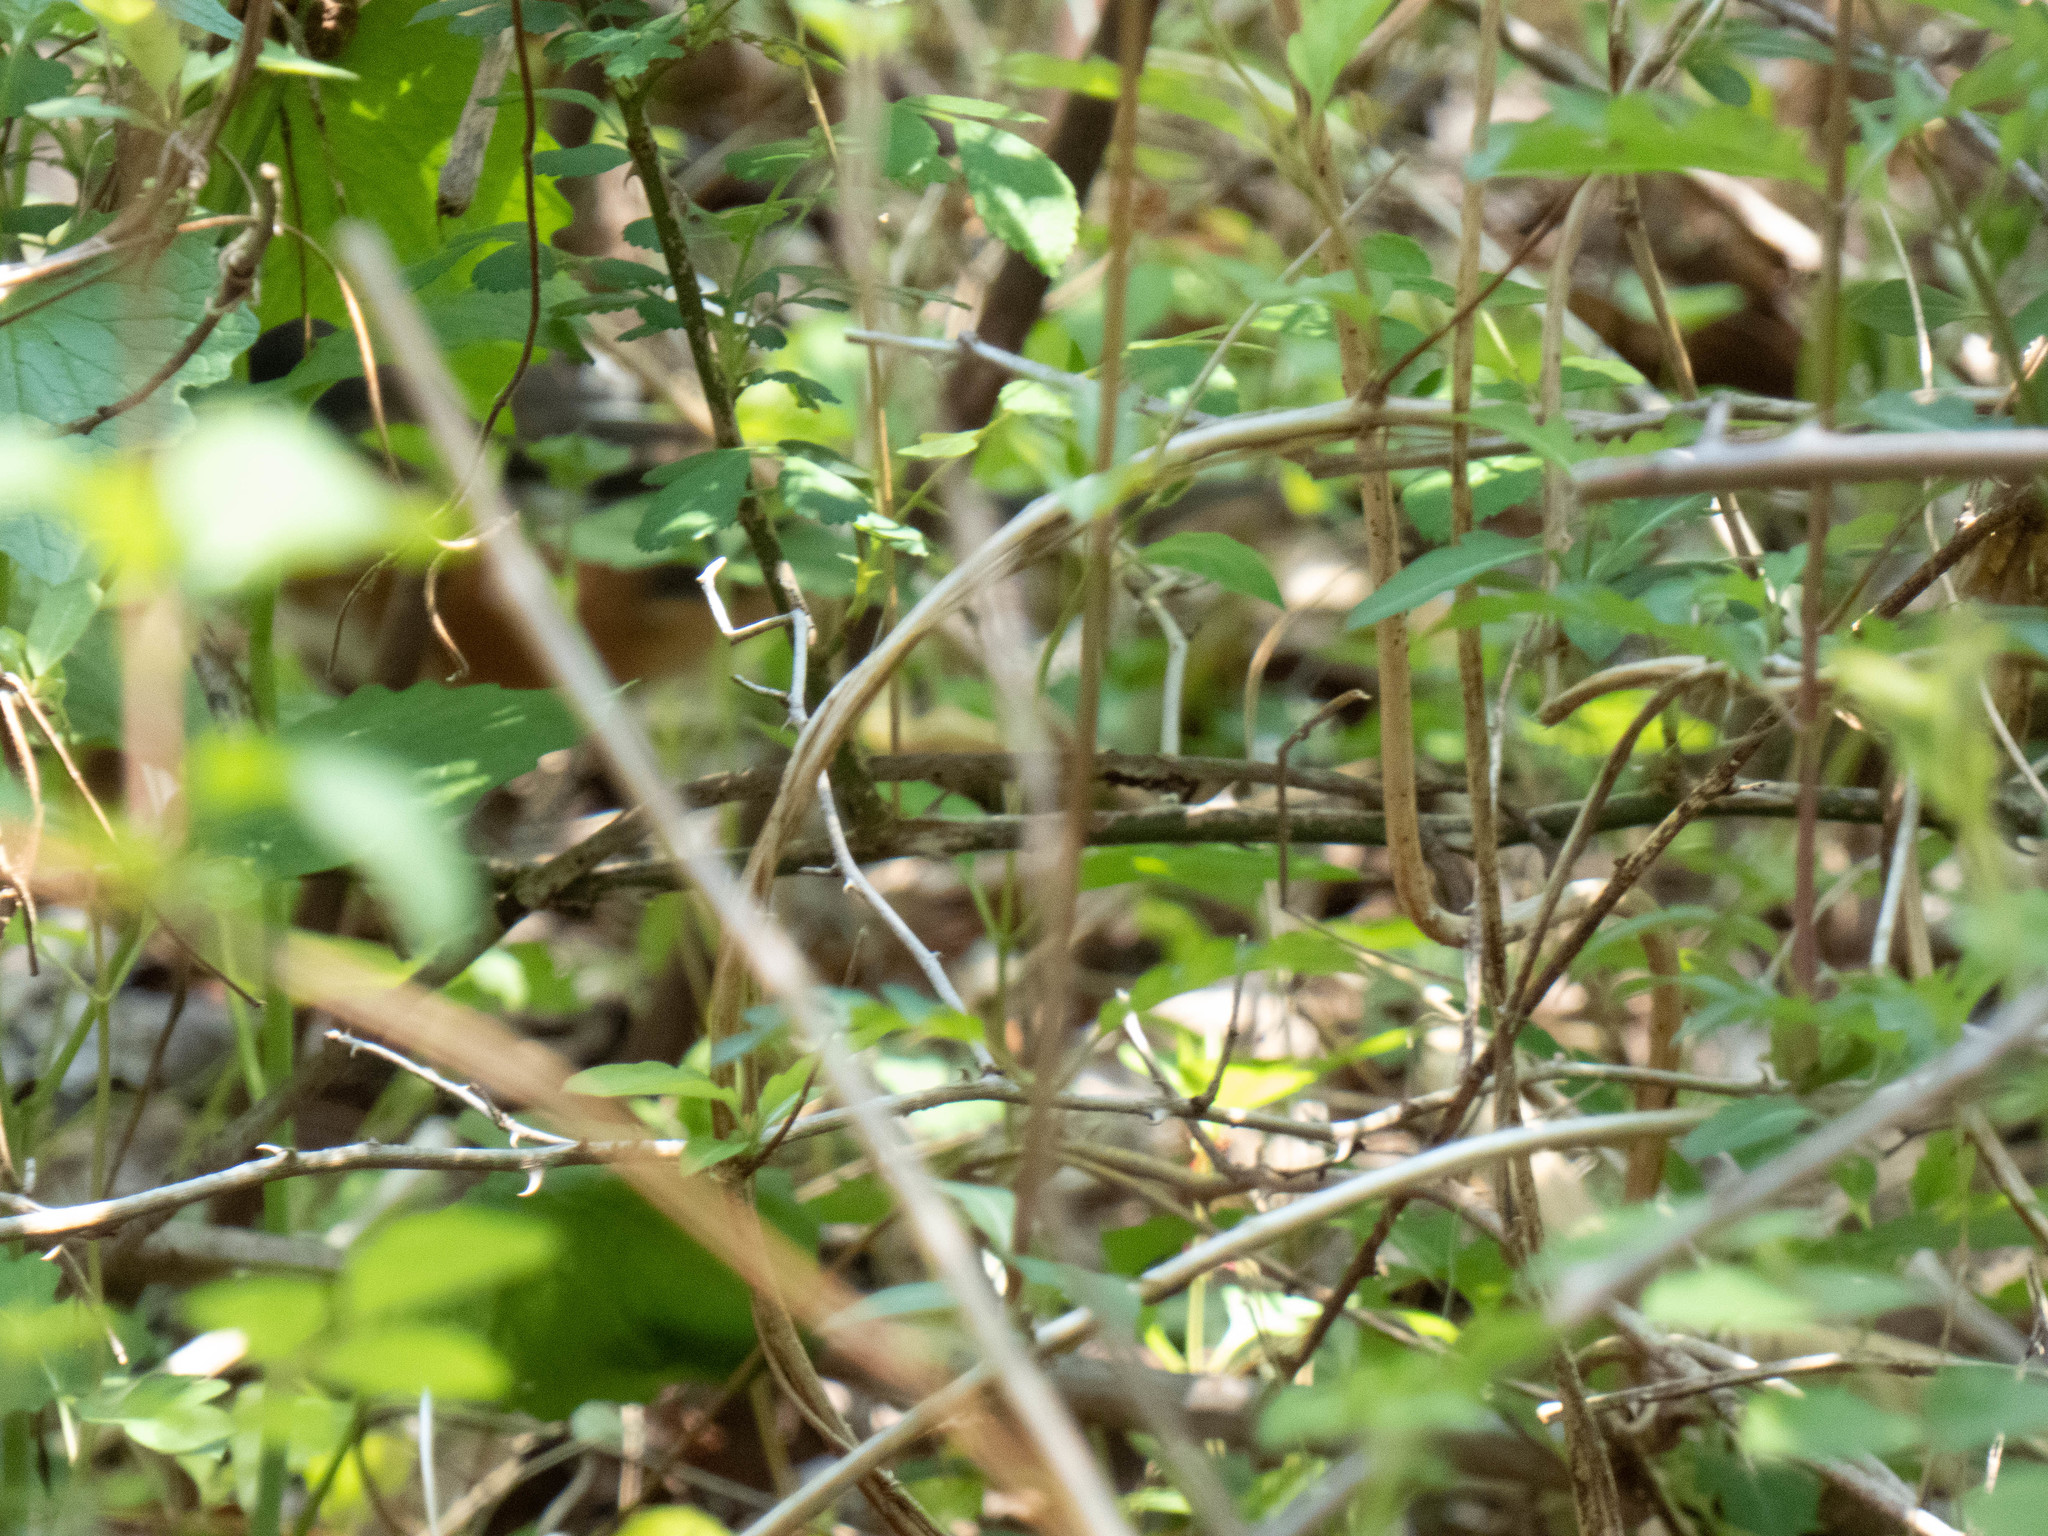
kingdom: Animalia
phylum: Chordata
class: Aves
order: Passeriformes
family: Passerellidae
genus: Pipilo
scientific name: Pipilo erythrophthalmus
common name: Eastern towhee
